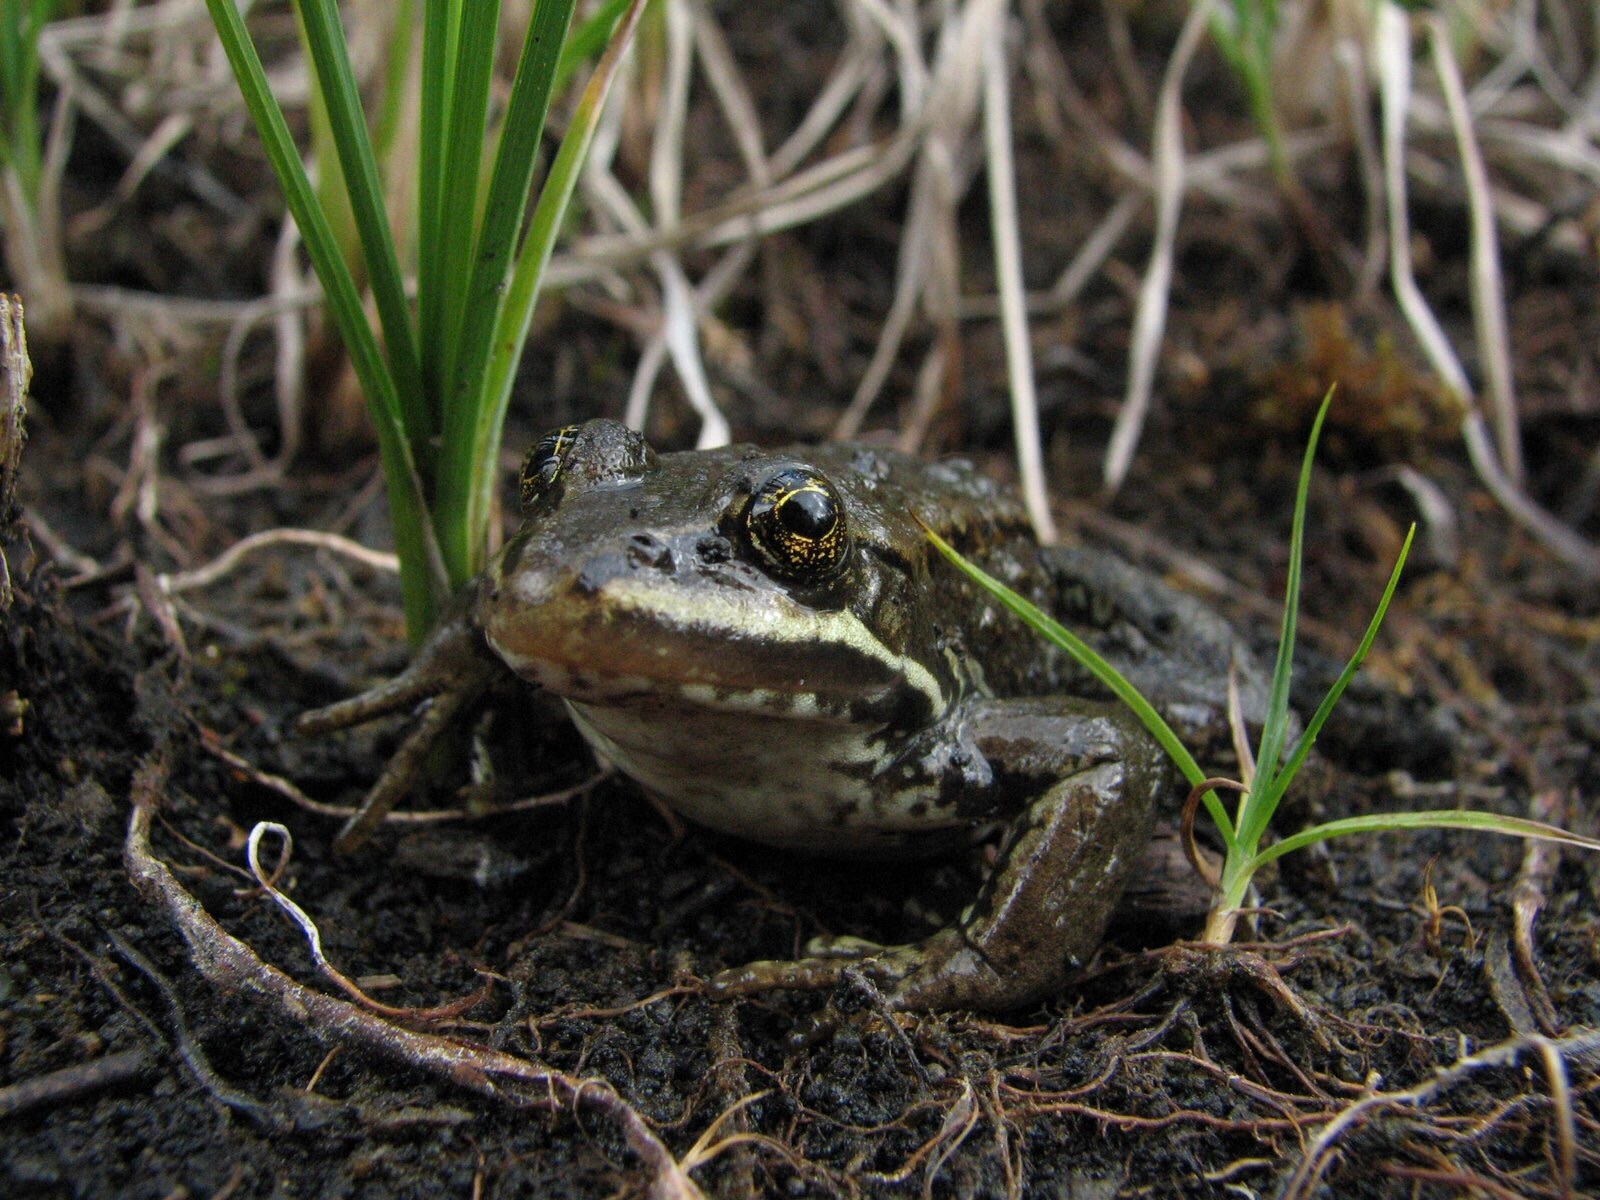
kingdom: Animalia
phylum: Chordata
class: Amphibia
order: Anura
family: Ranidae
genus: Rana
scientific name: Rana luteiventris
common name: Columbia spotted frog
